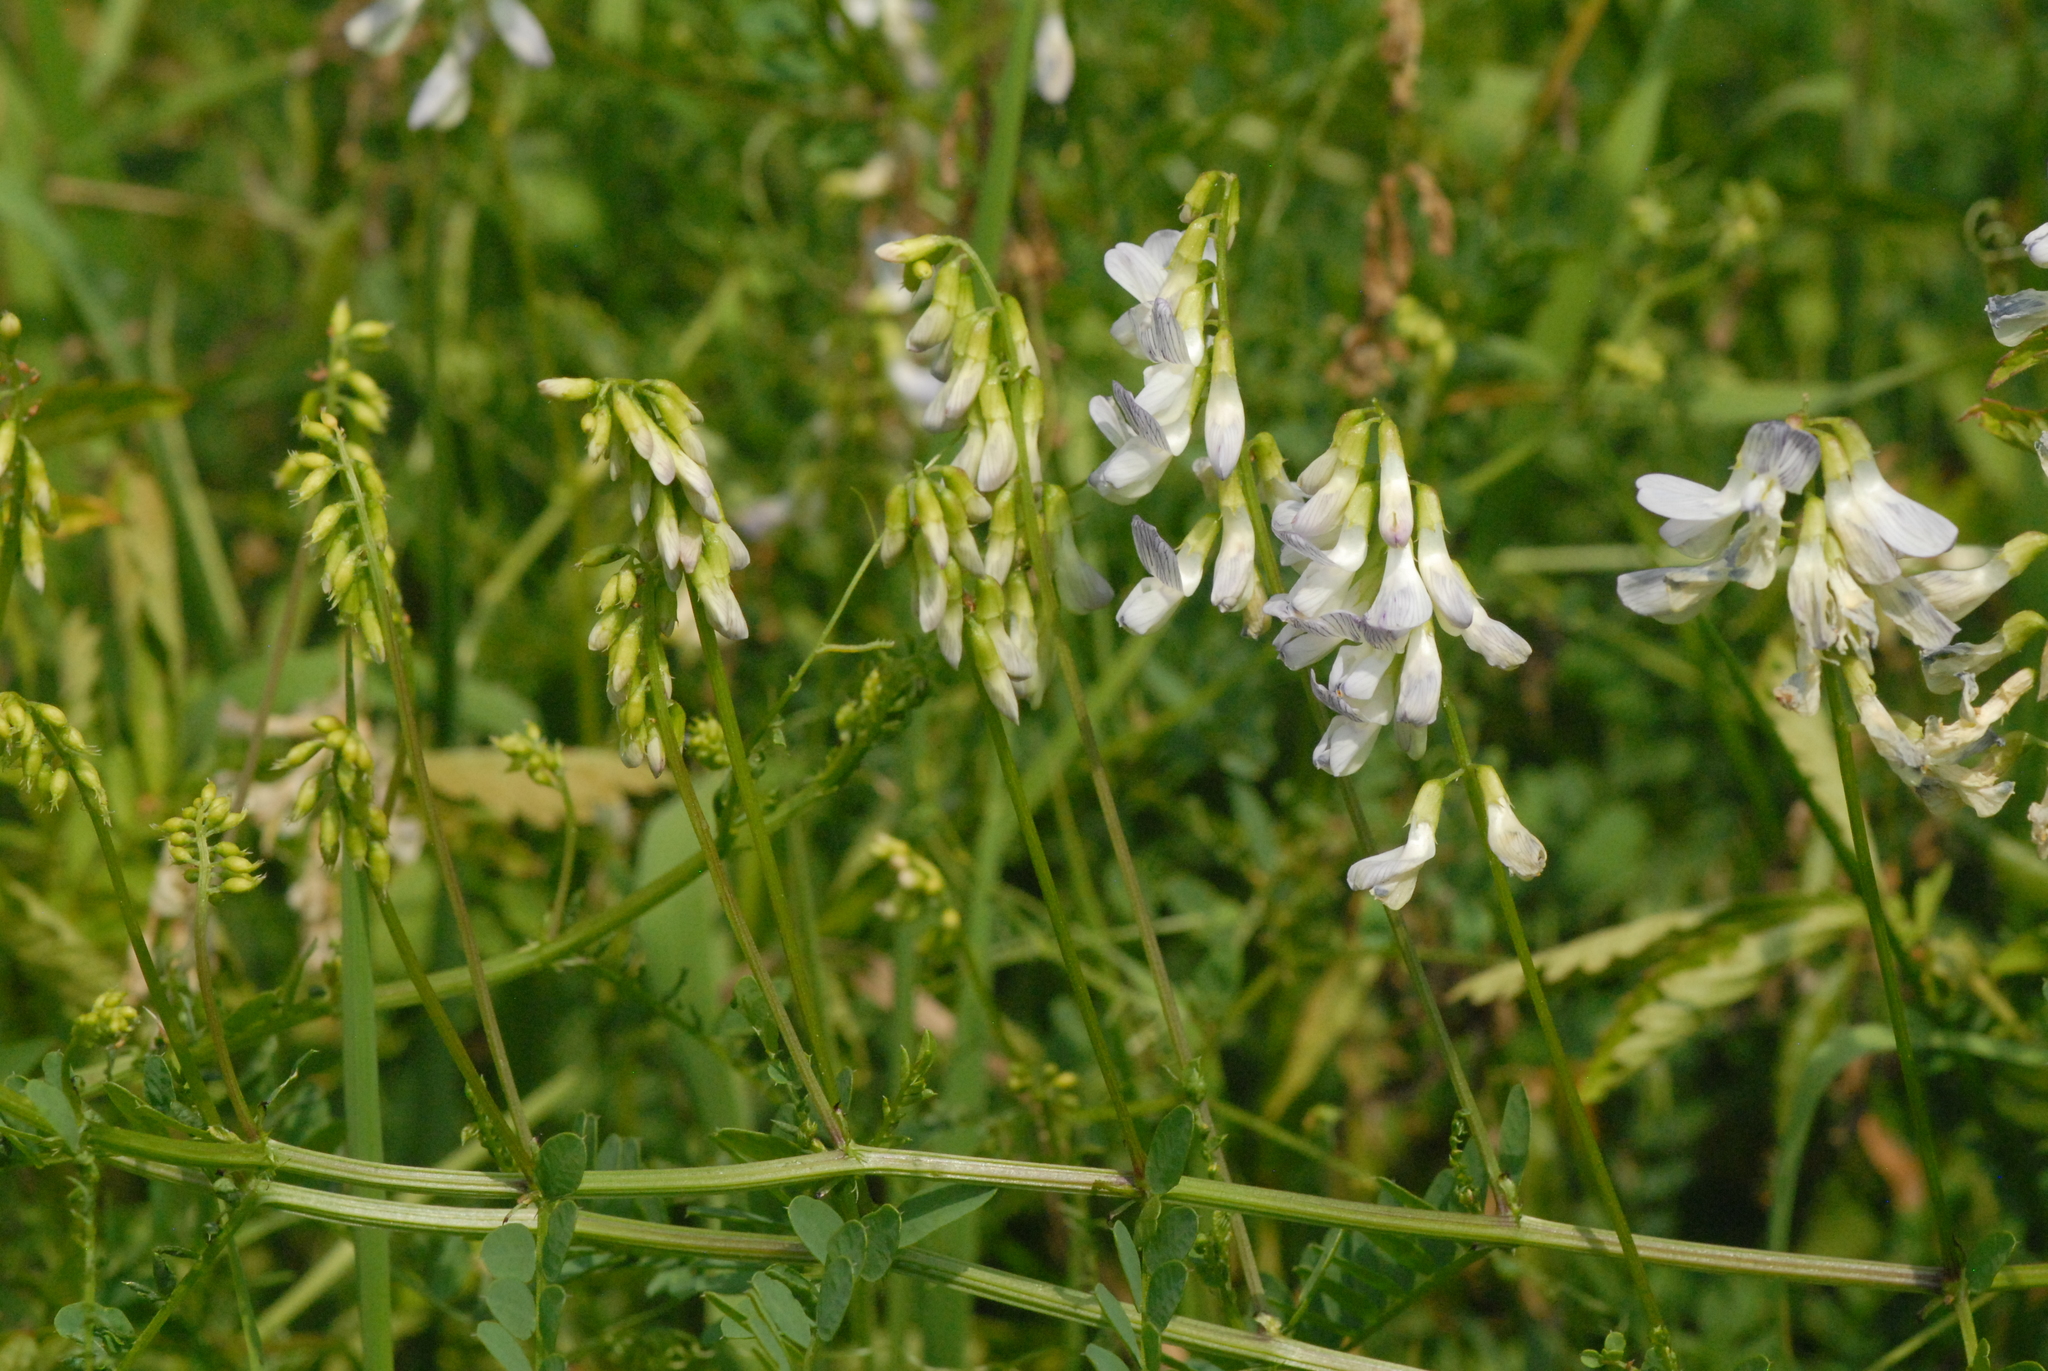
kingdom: Plantae
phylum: Tracheophyta
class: Magnoliopsida
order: Fabales
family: Fabaceae
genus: Vicia
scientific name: Vicia sylvatica
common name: Wood vetch
